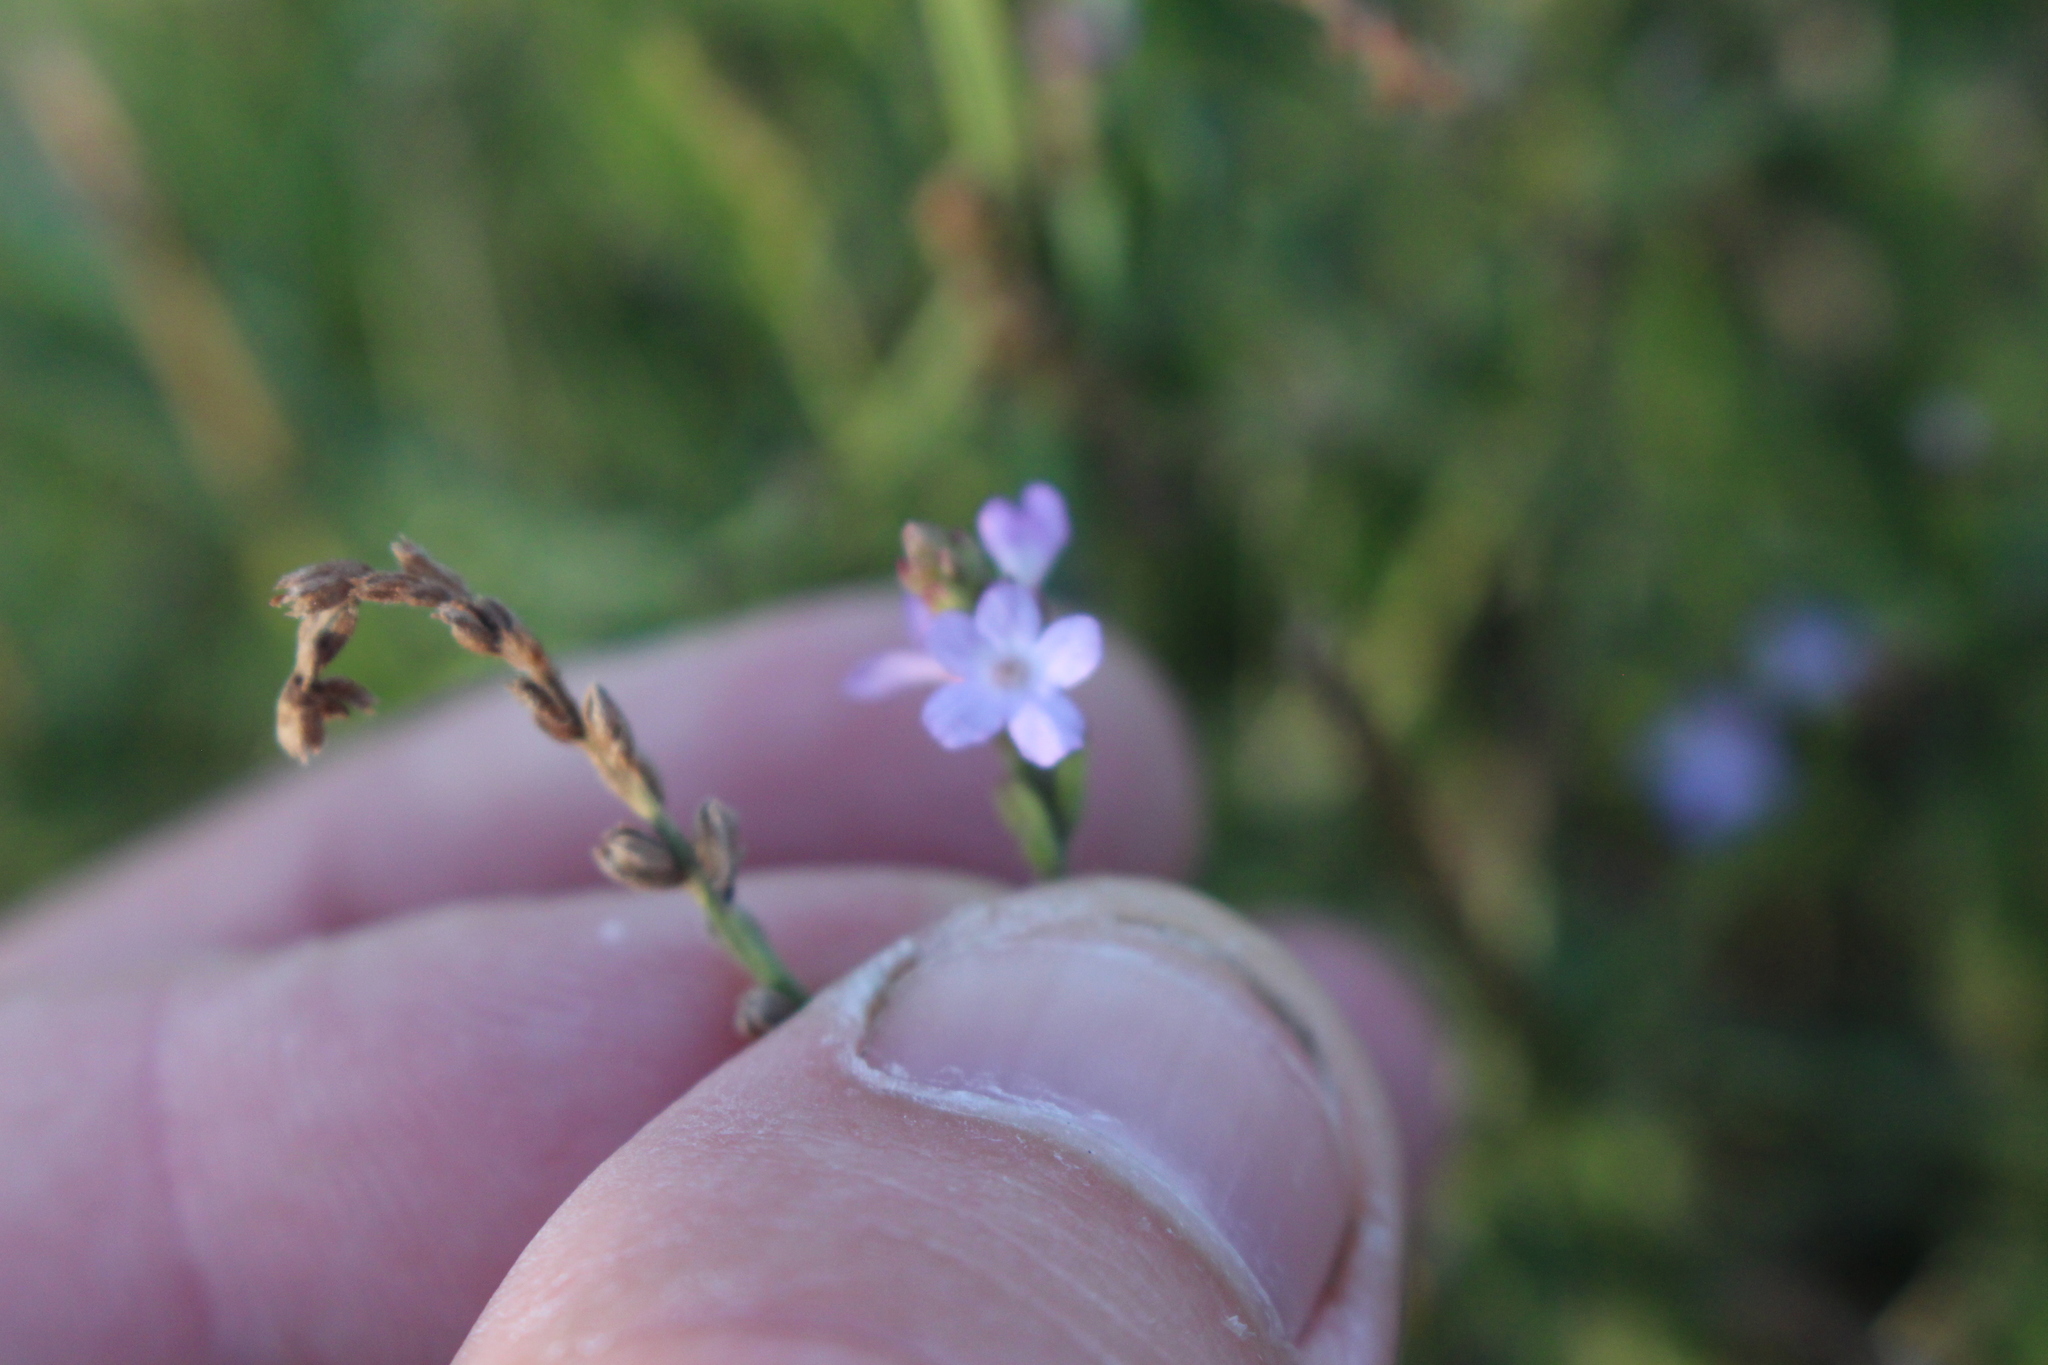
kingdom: Plantae
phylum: Tracheophyta
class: Magnoliopsida
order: Lamiales
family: Verbenaceae
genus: Verbena
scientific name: Verbena officinalis
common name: Vervain
